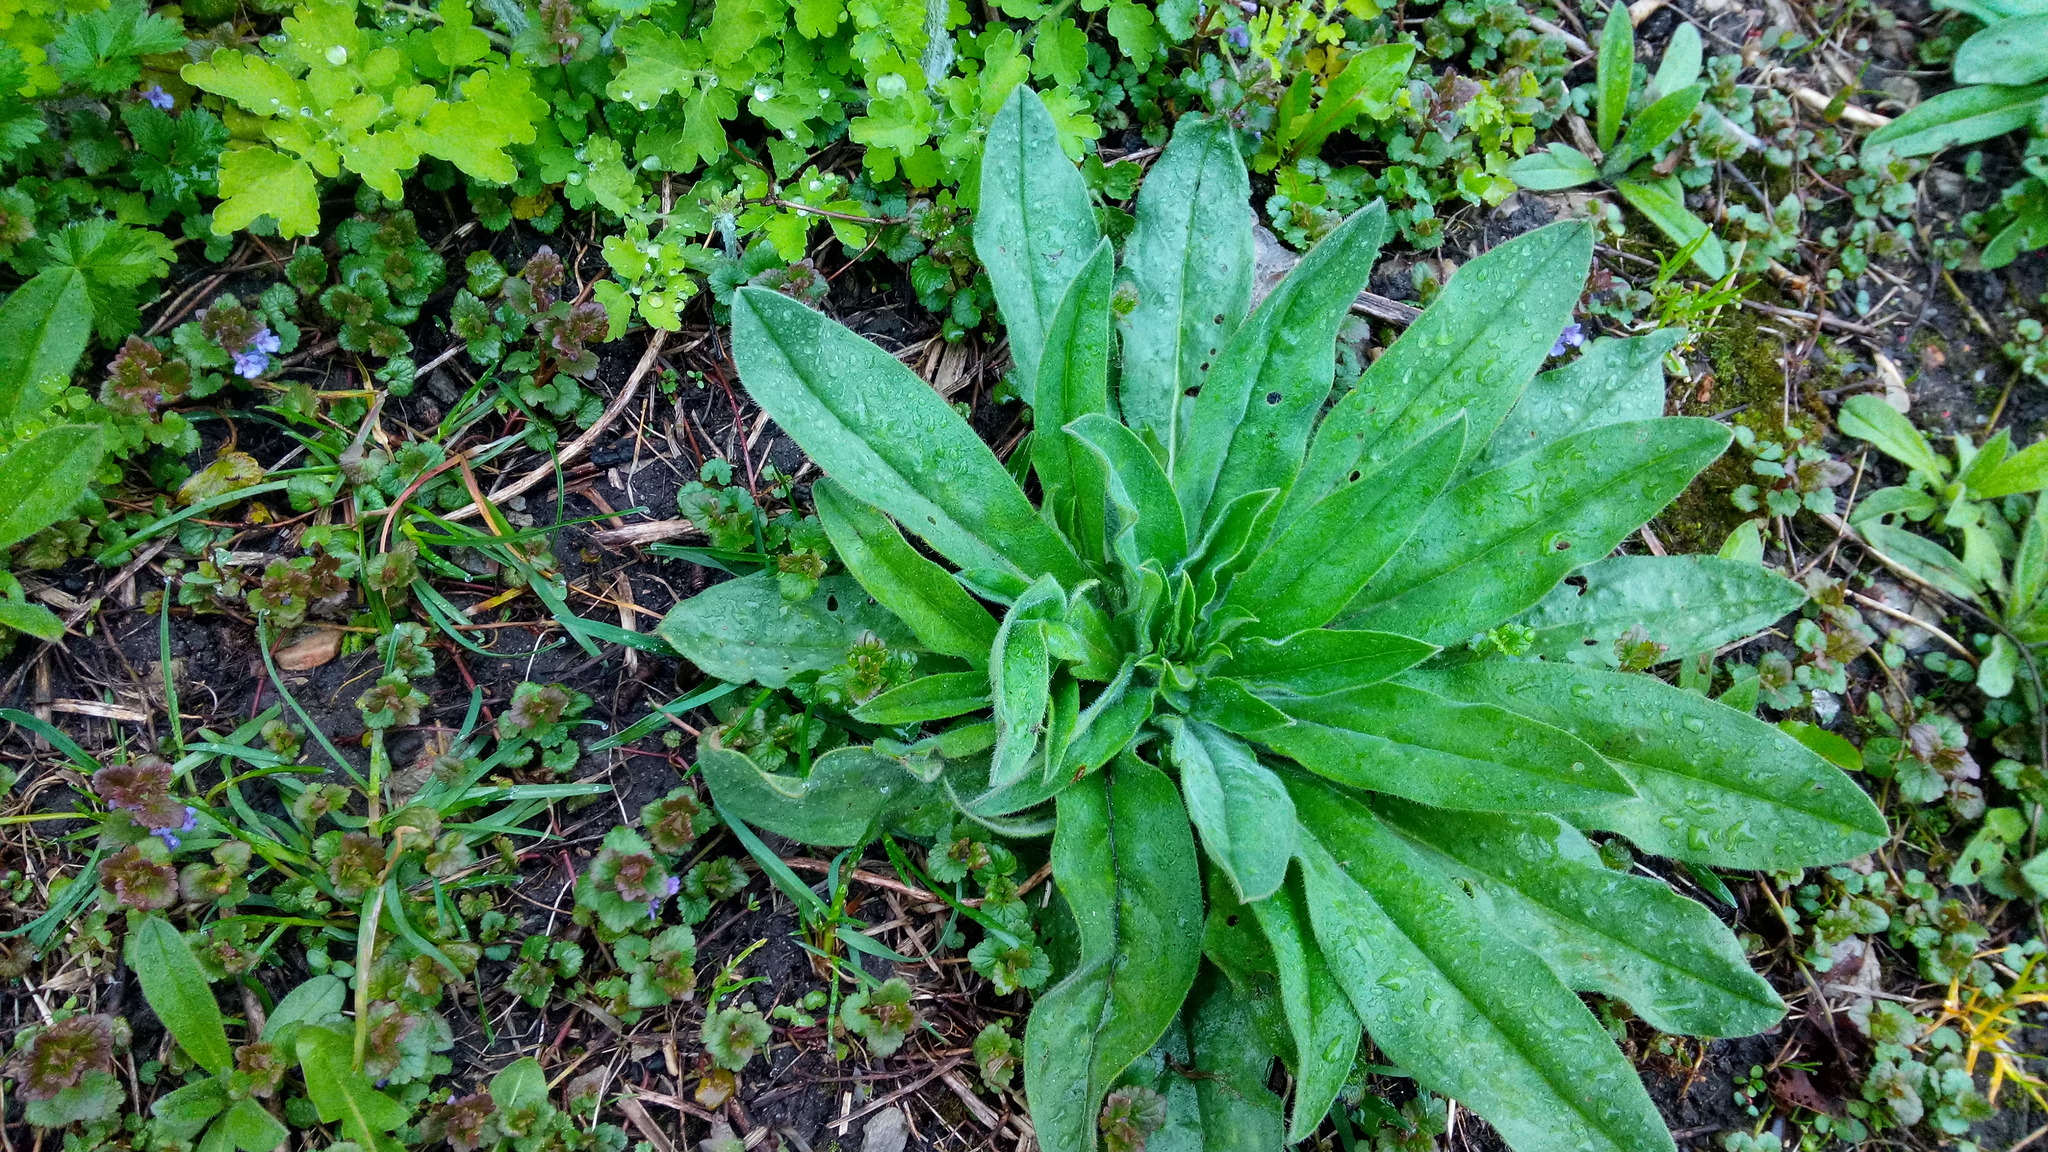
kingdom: Plantae
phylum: Tracheophyta
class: Magnoliopsida
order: Boraginales
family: Boraginaceae
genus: Echium
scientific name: Echium vulgare
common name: Common viper's bugloss
